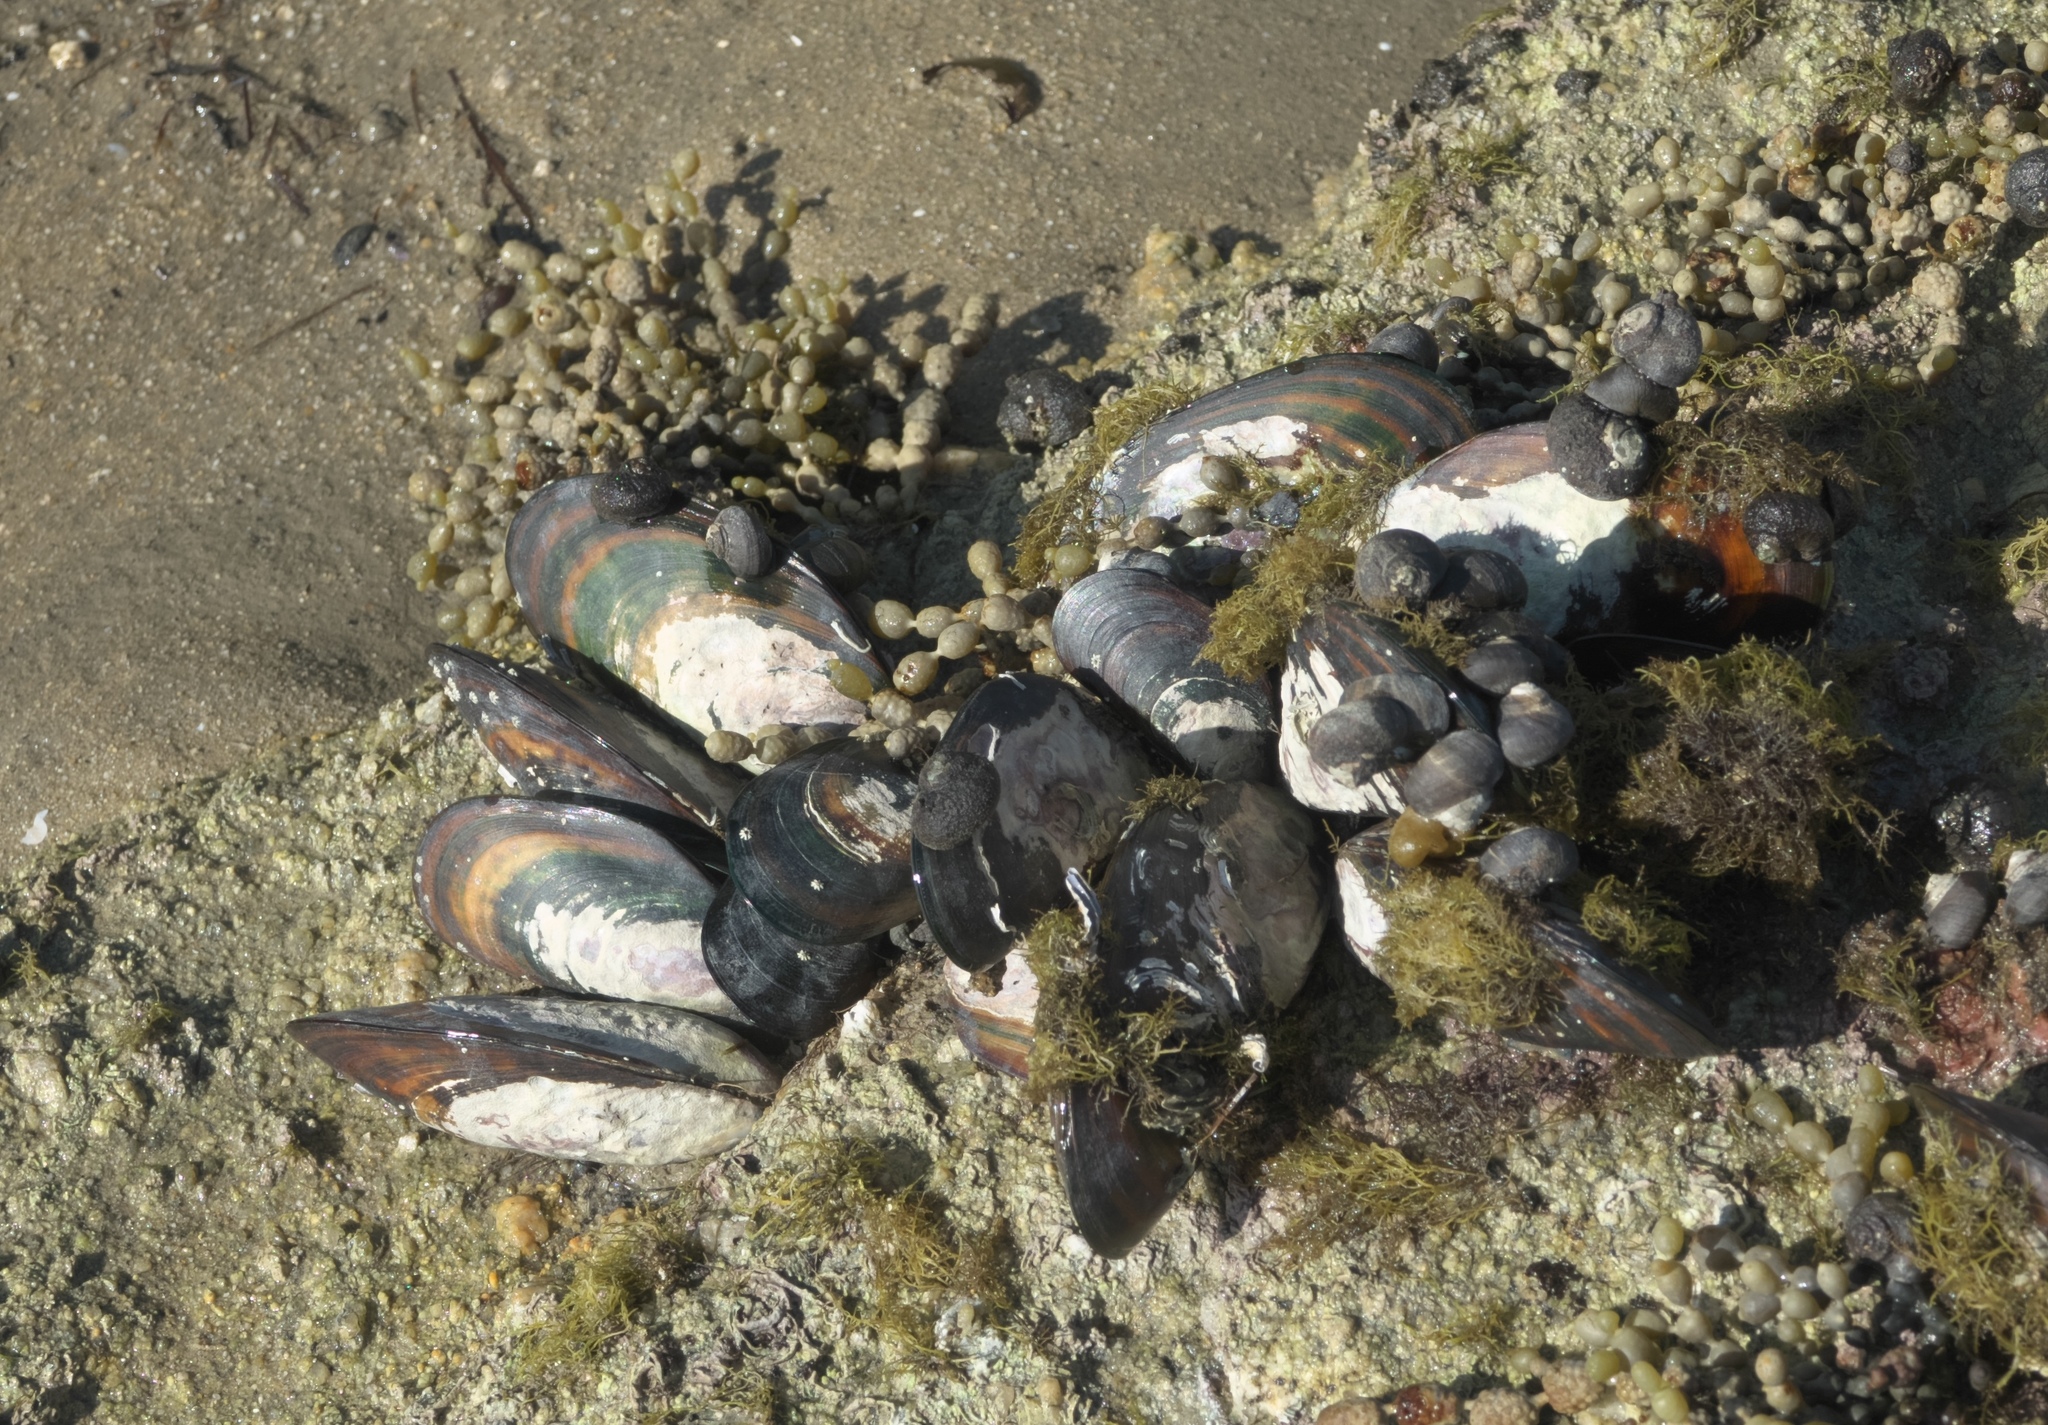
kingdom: Animalia
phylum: Mollusca
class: Bivalvia
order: Mytilida
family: Mytilidae
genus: Perna
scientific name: Perna canaliculus
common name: New zealand greenshelltm
